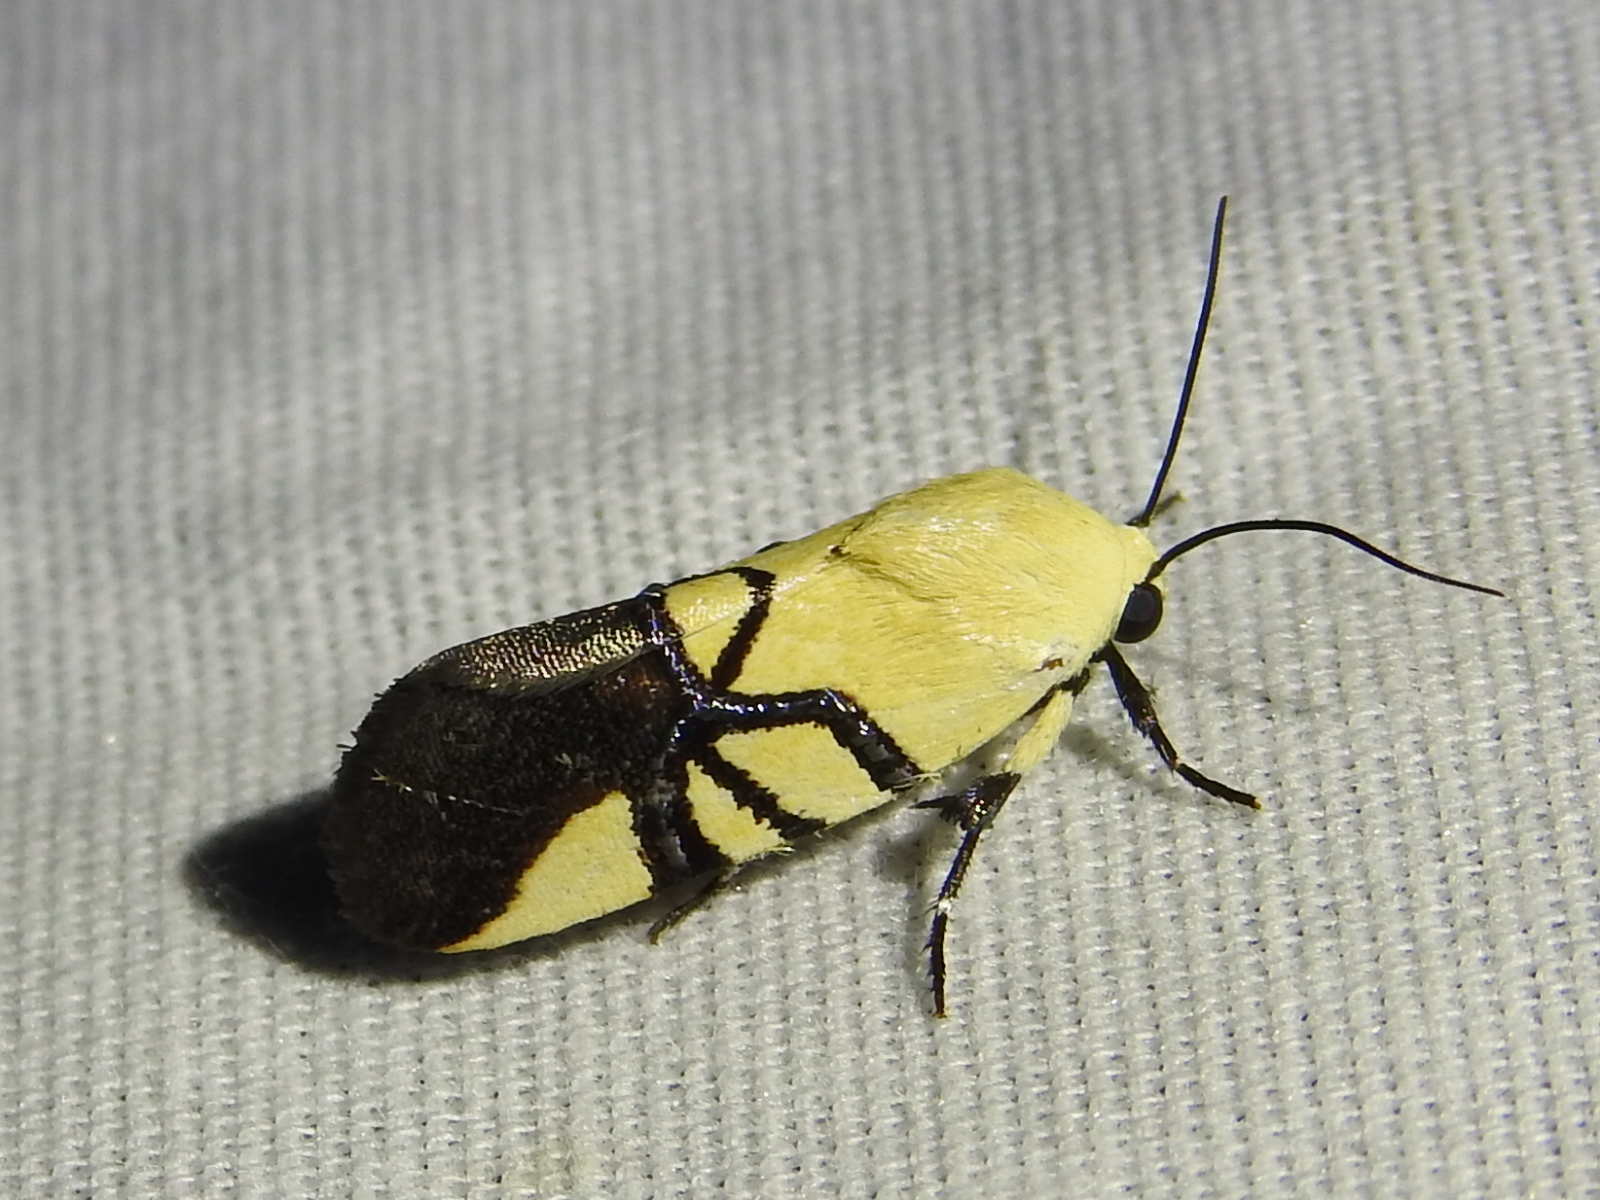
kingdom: Animalia
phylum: Arthropoda
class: Insecta
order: Lepidoptera
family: Noctuidae
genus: Eusceptis
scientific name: Eusceptis flavifrimbriata
